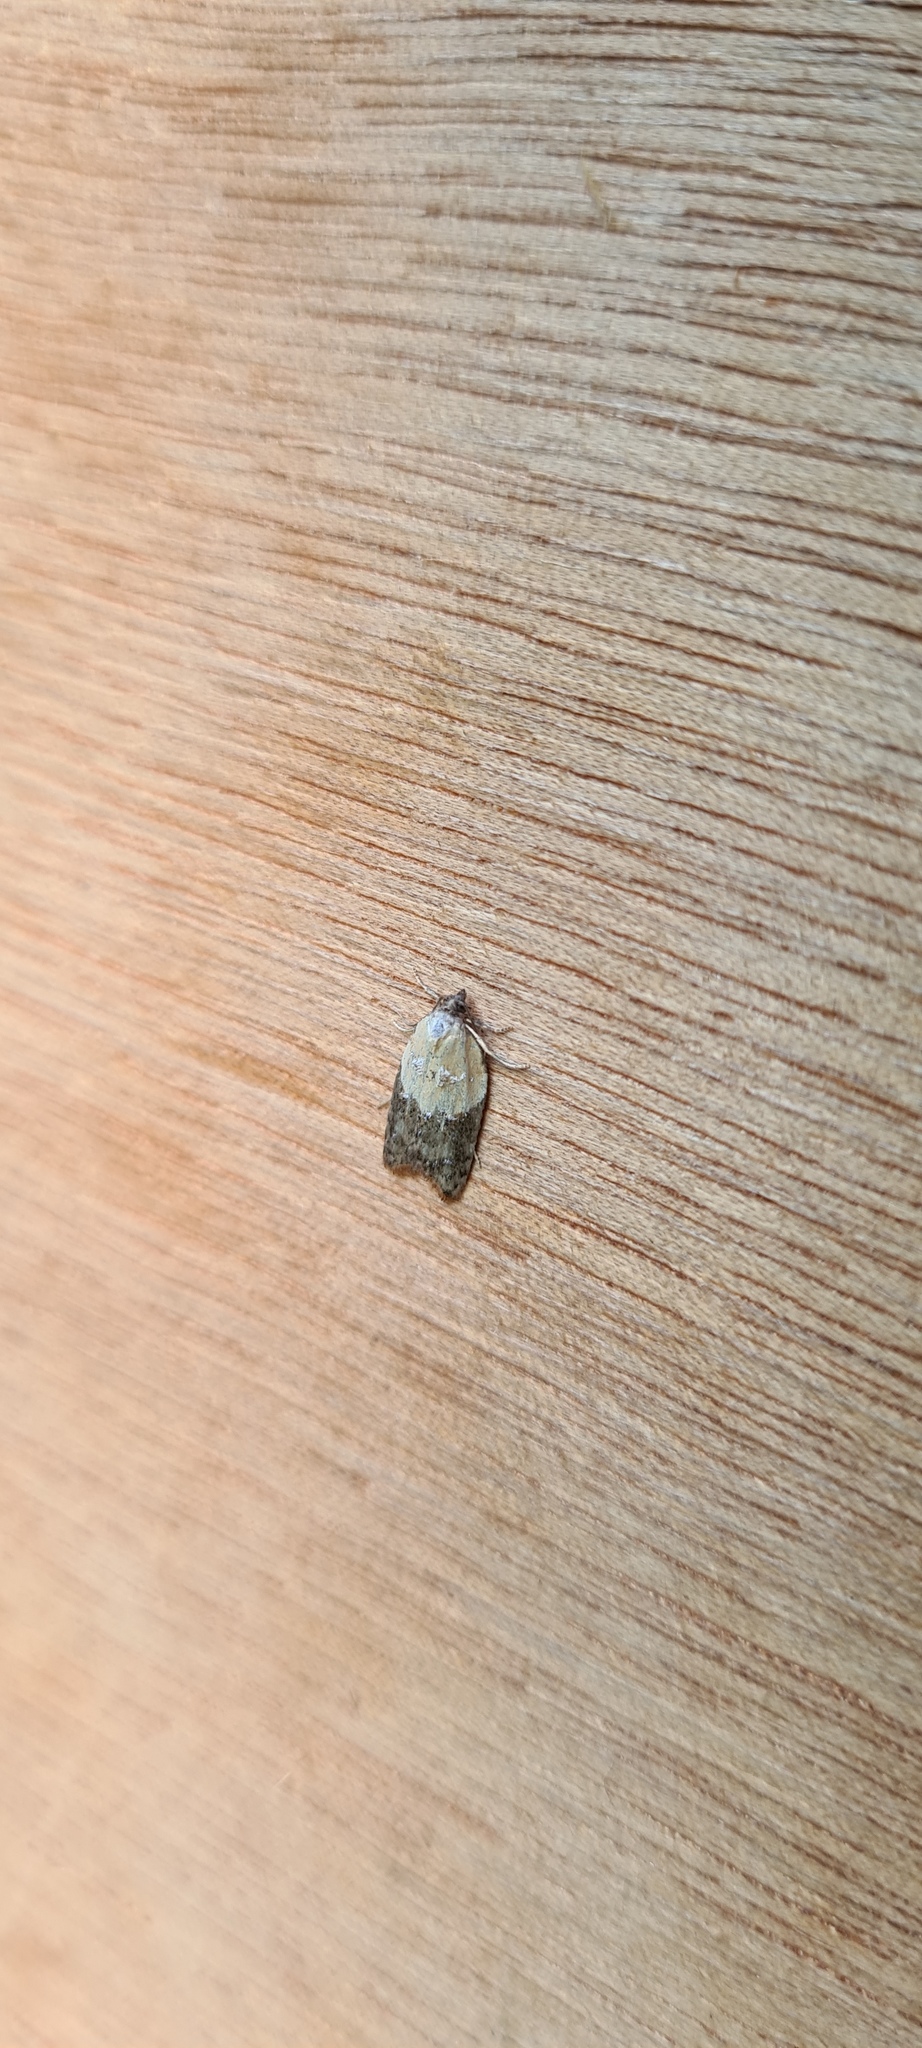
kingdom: Animalia
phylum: Arthropoda
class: Insecta
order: Lepidoptera
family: Tortricidae
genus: Acleris
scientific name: Acleris variegana
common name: Garden rose tortrix
